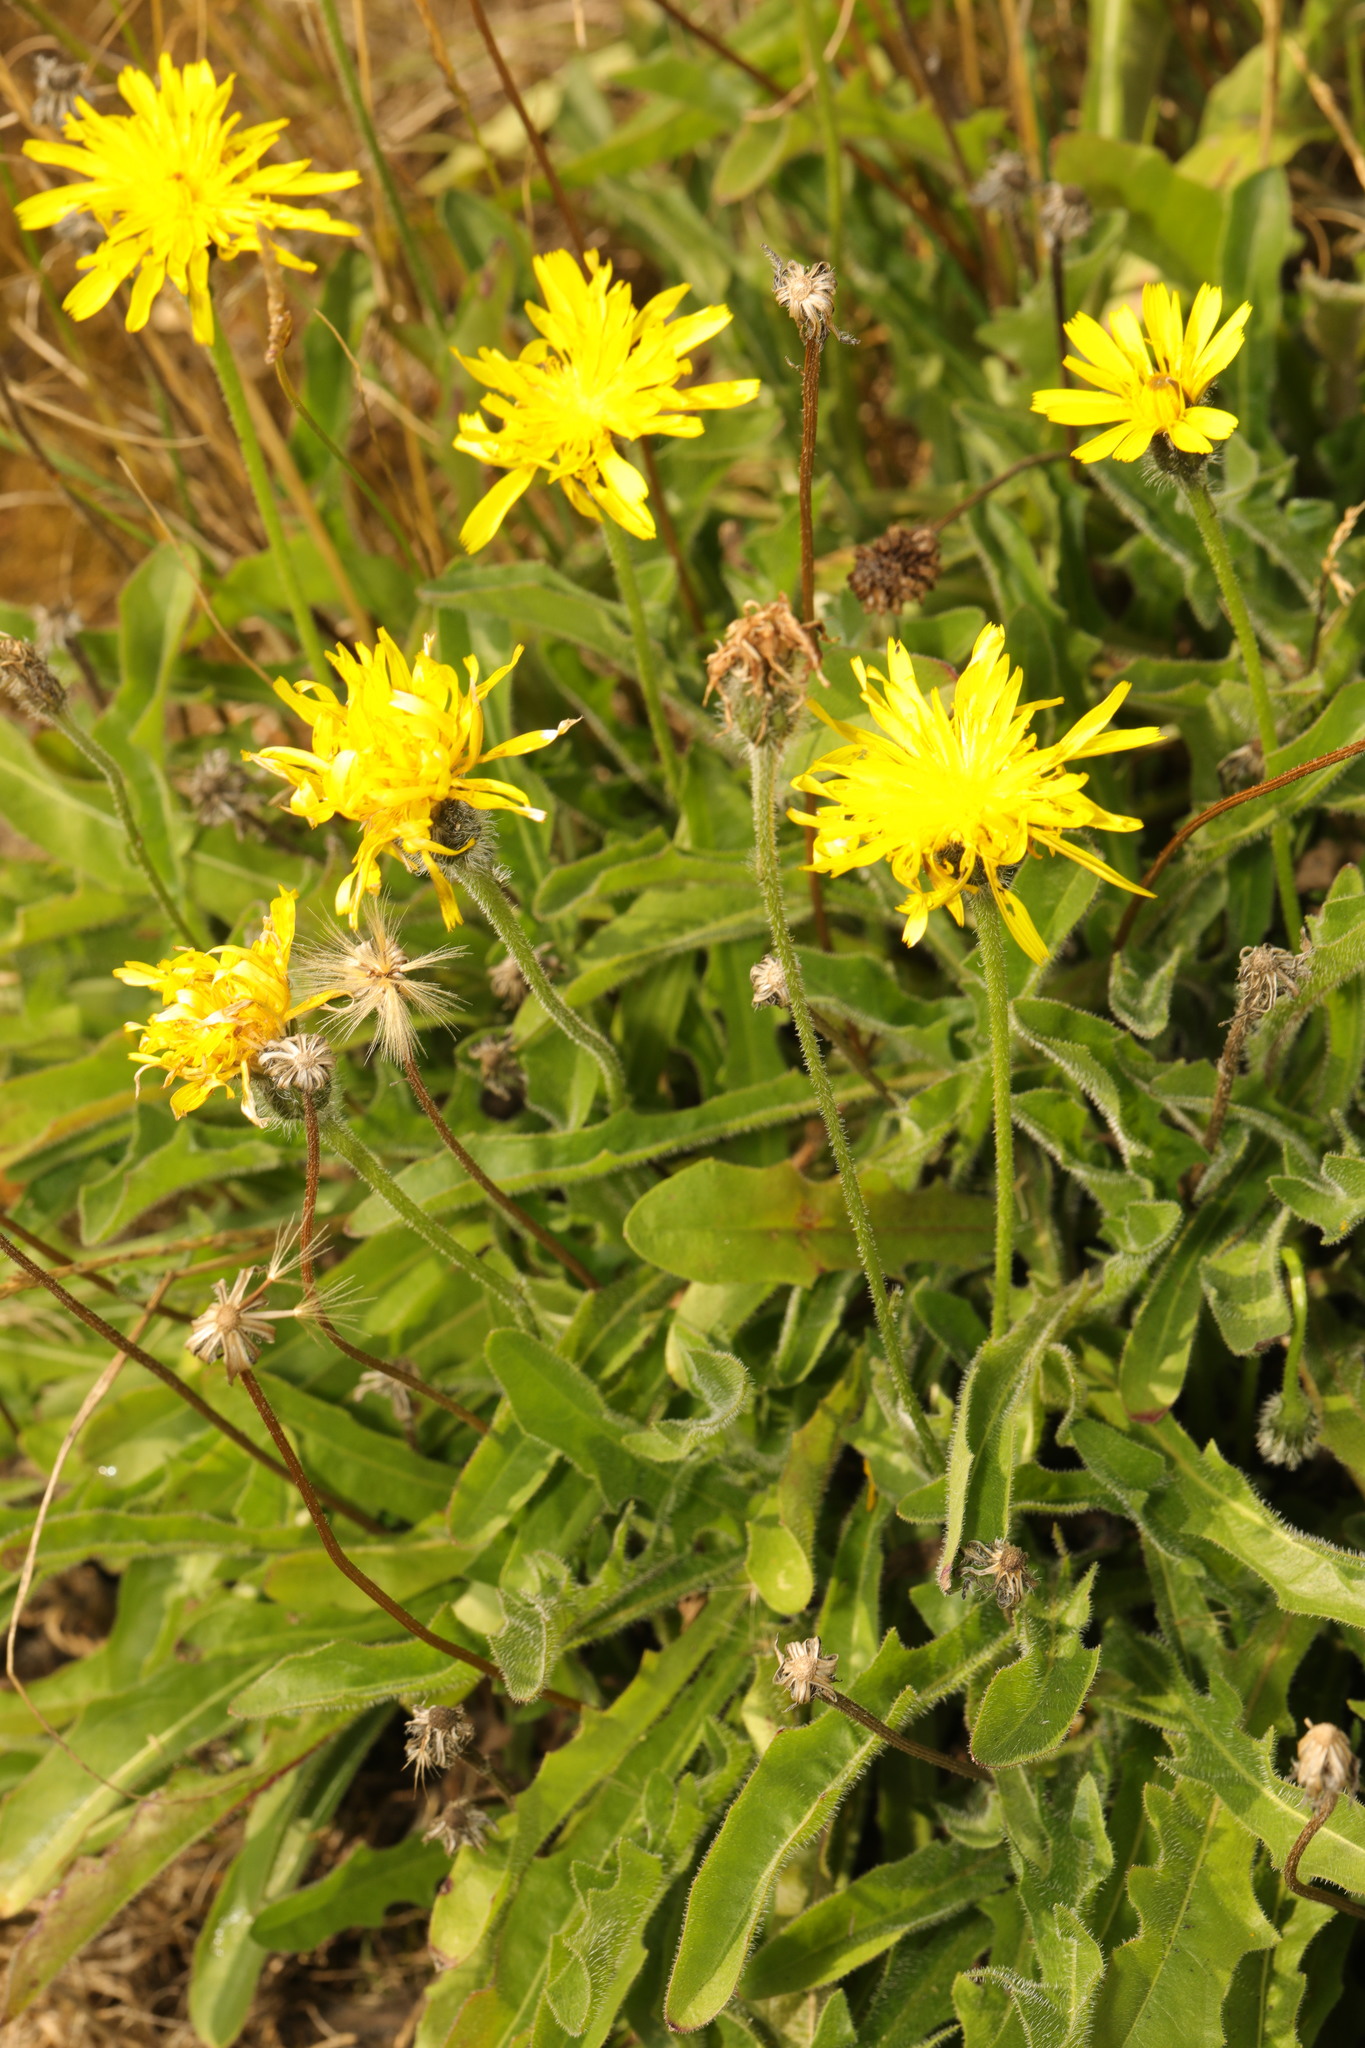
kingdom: Plantae
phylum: Tracheophyta
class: Magnoliopsida
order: Asterales
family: Asteraceae
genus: Leontodon
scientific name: Leontodon hispidus
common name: Rough hawkbit
